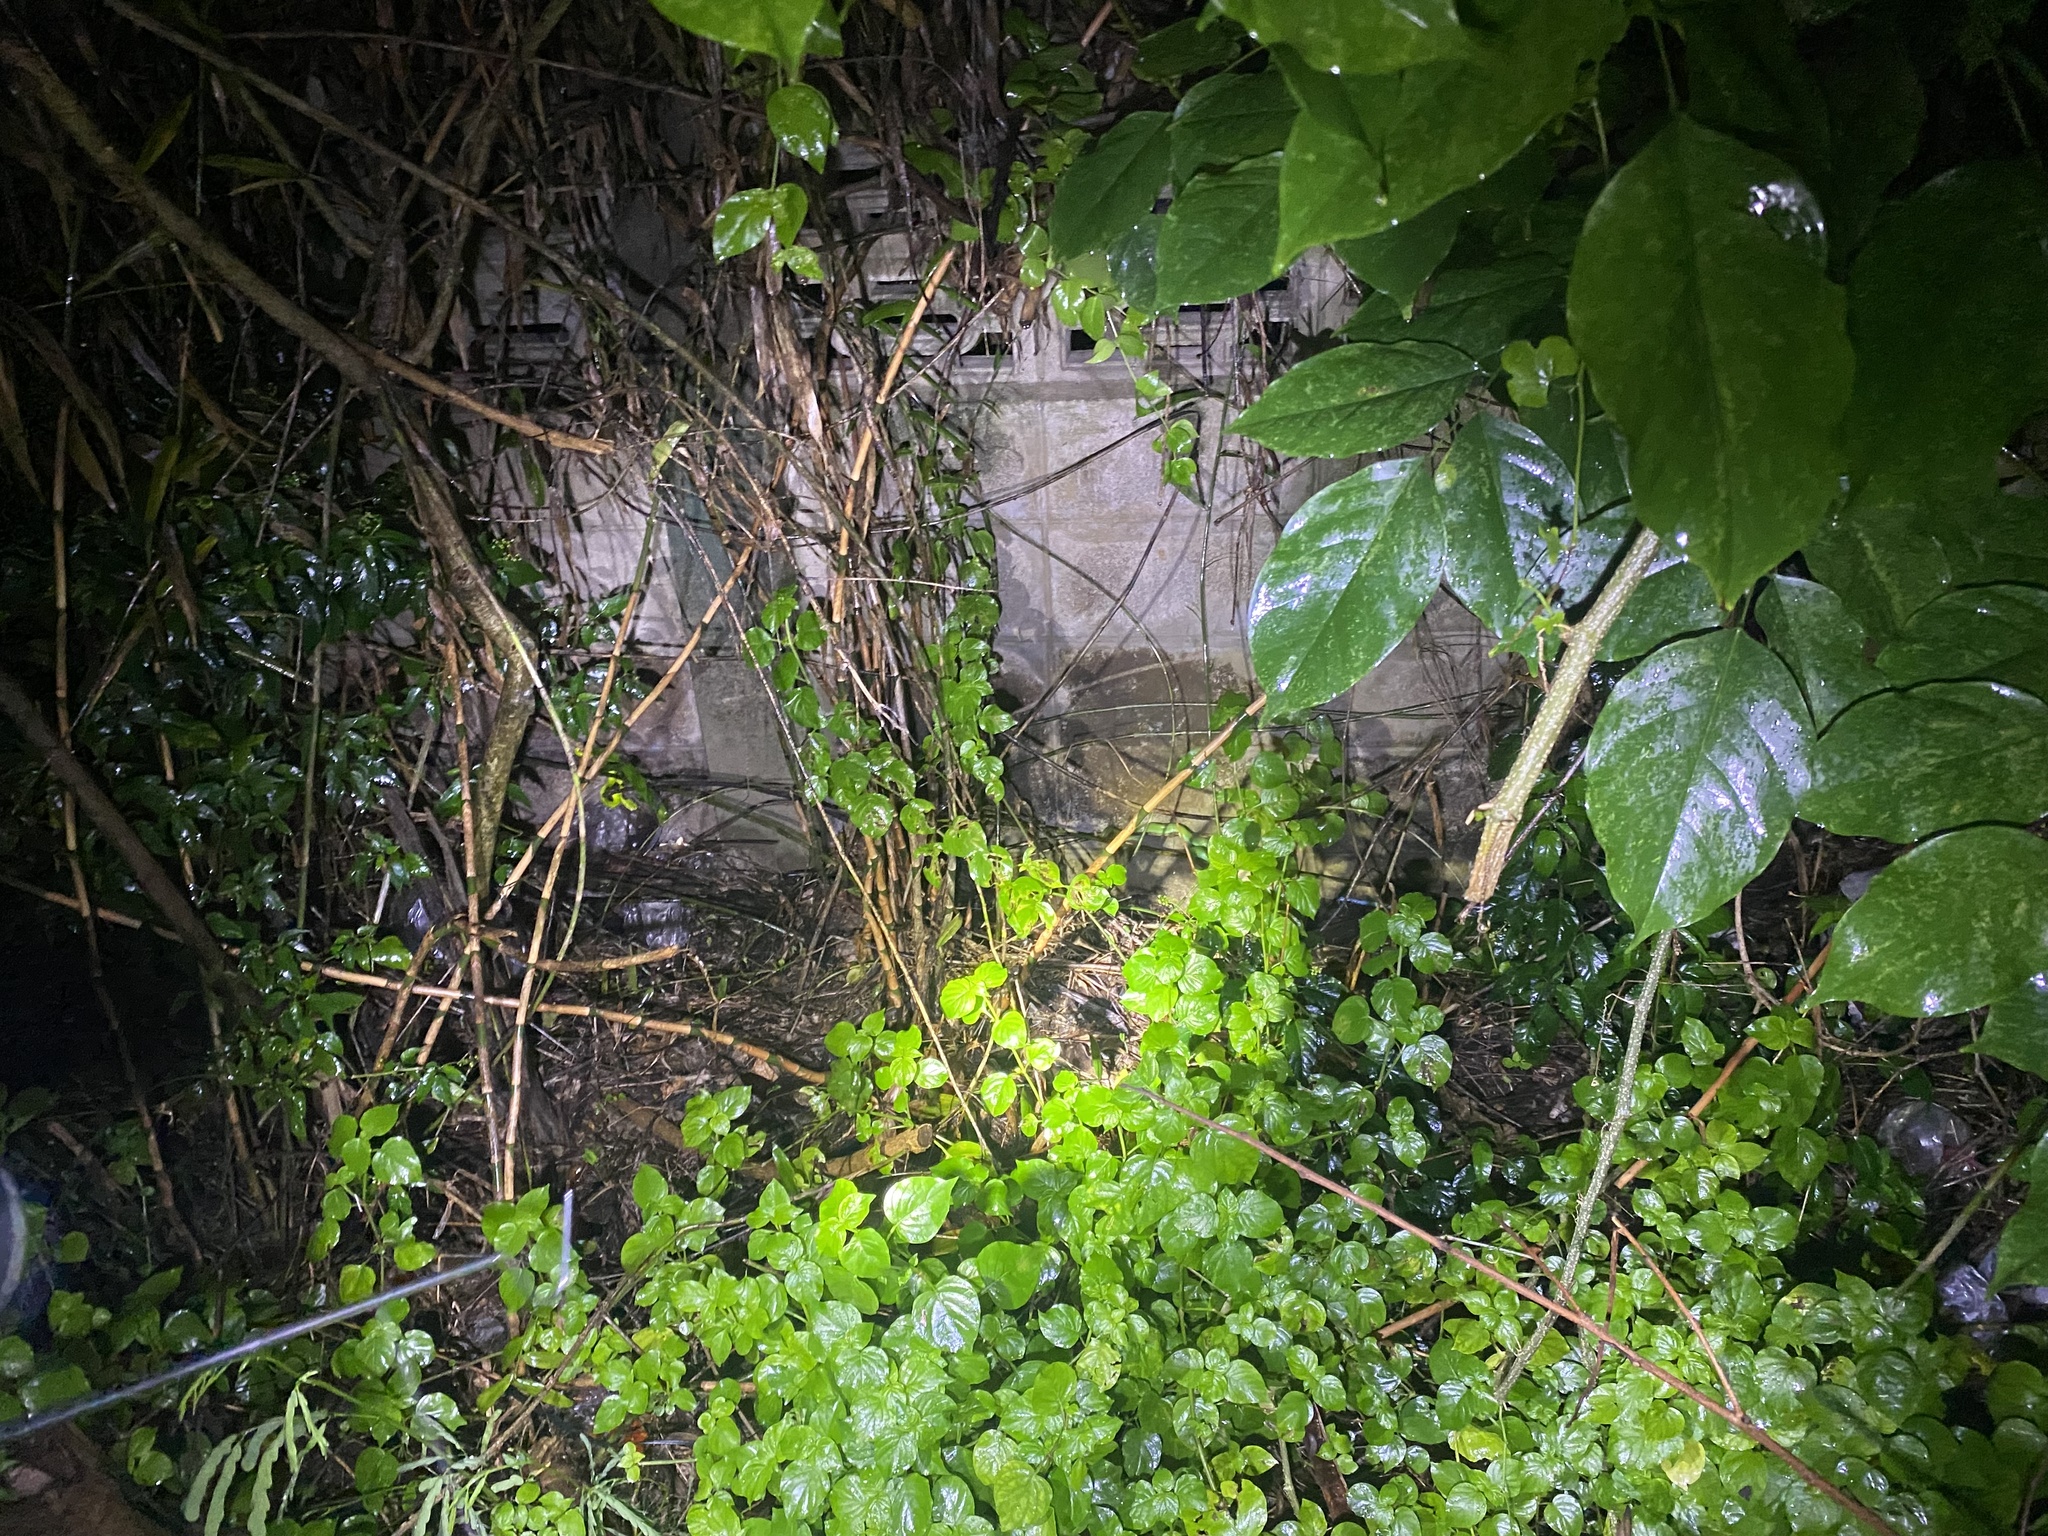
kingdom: Animalia
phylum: Chordata
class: Squamata
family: Viperidae
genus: Trimeresurus
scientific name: Trimeresurus albolabris
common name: White-lipped pitviper
